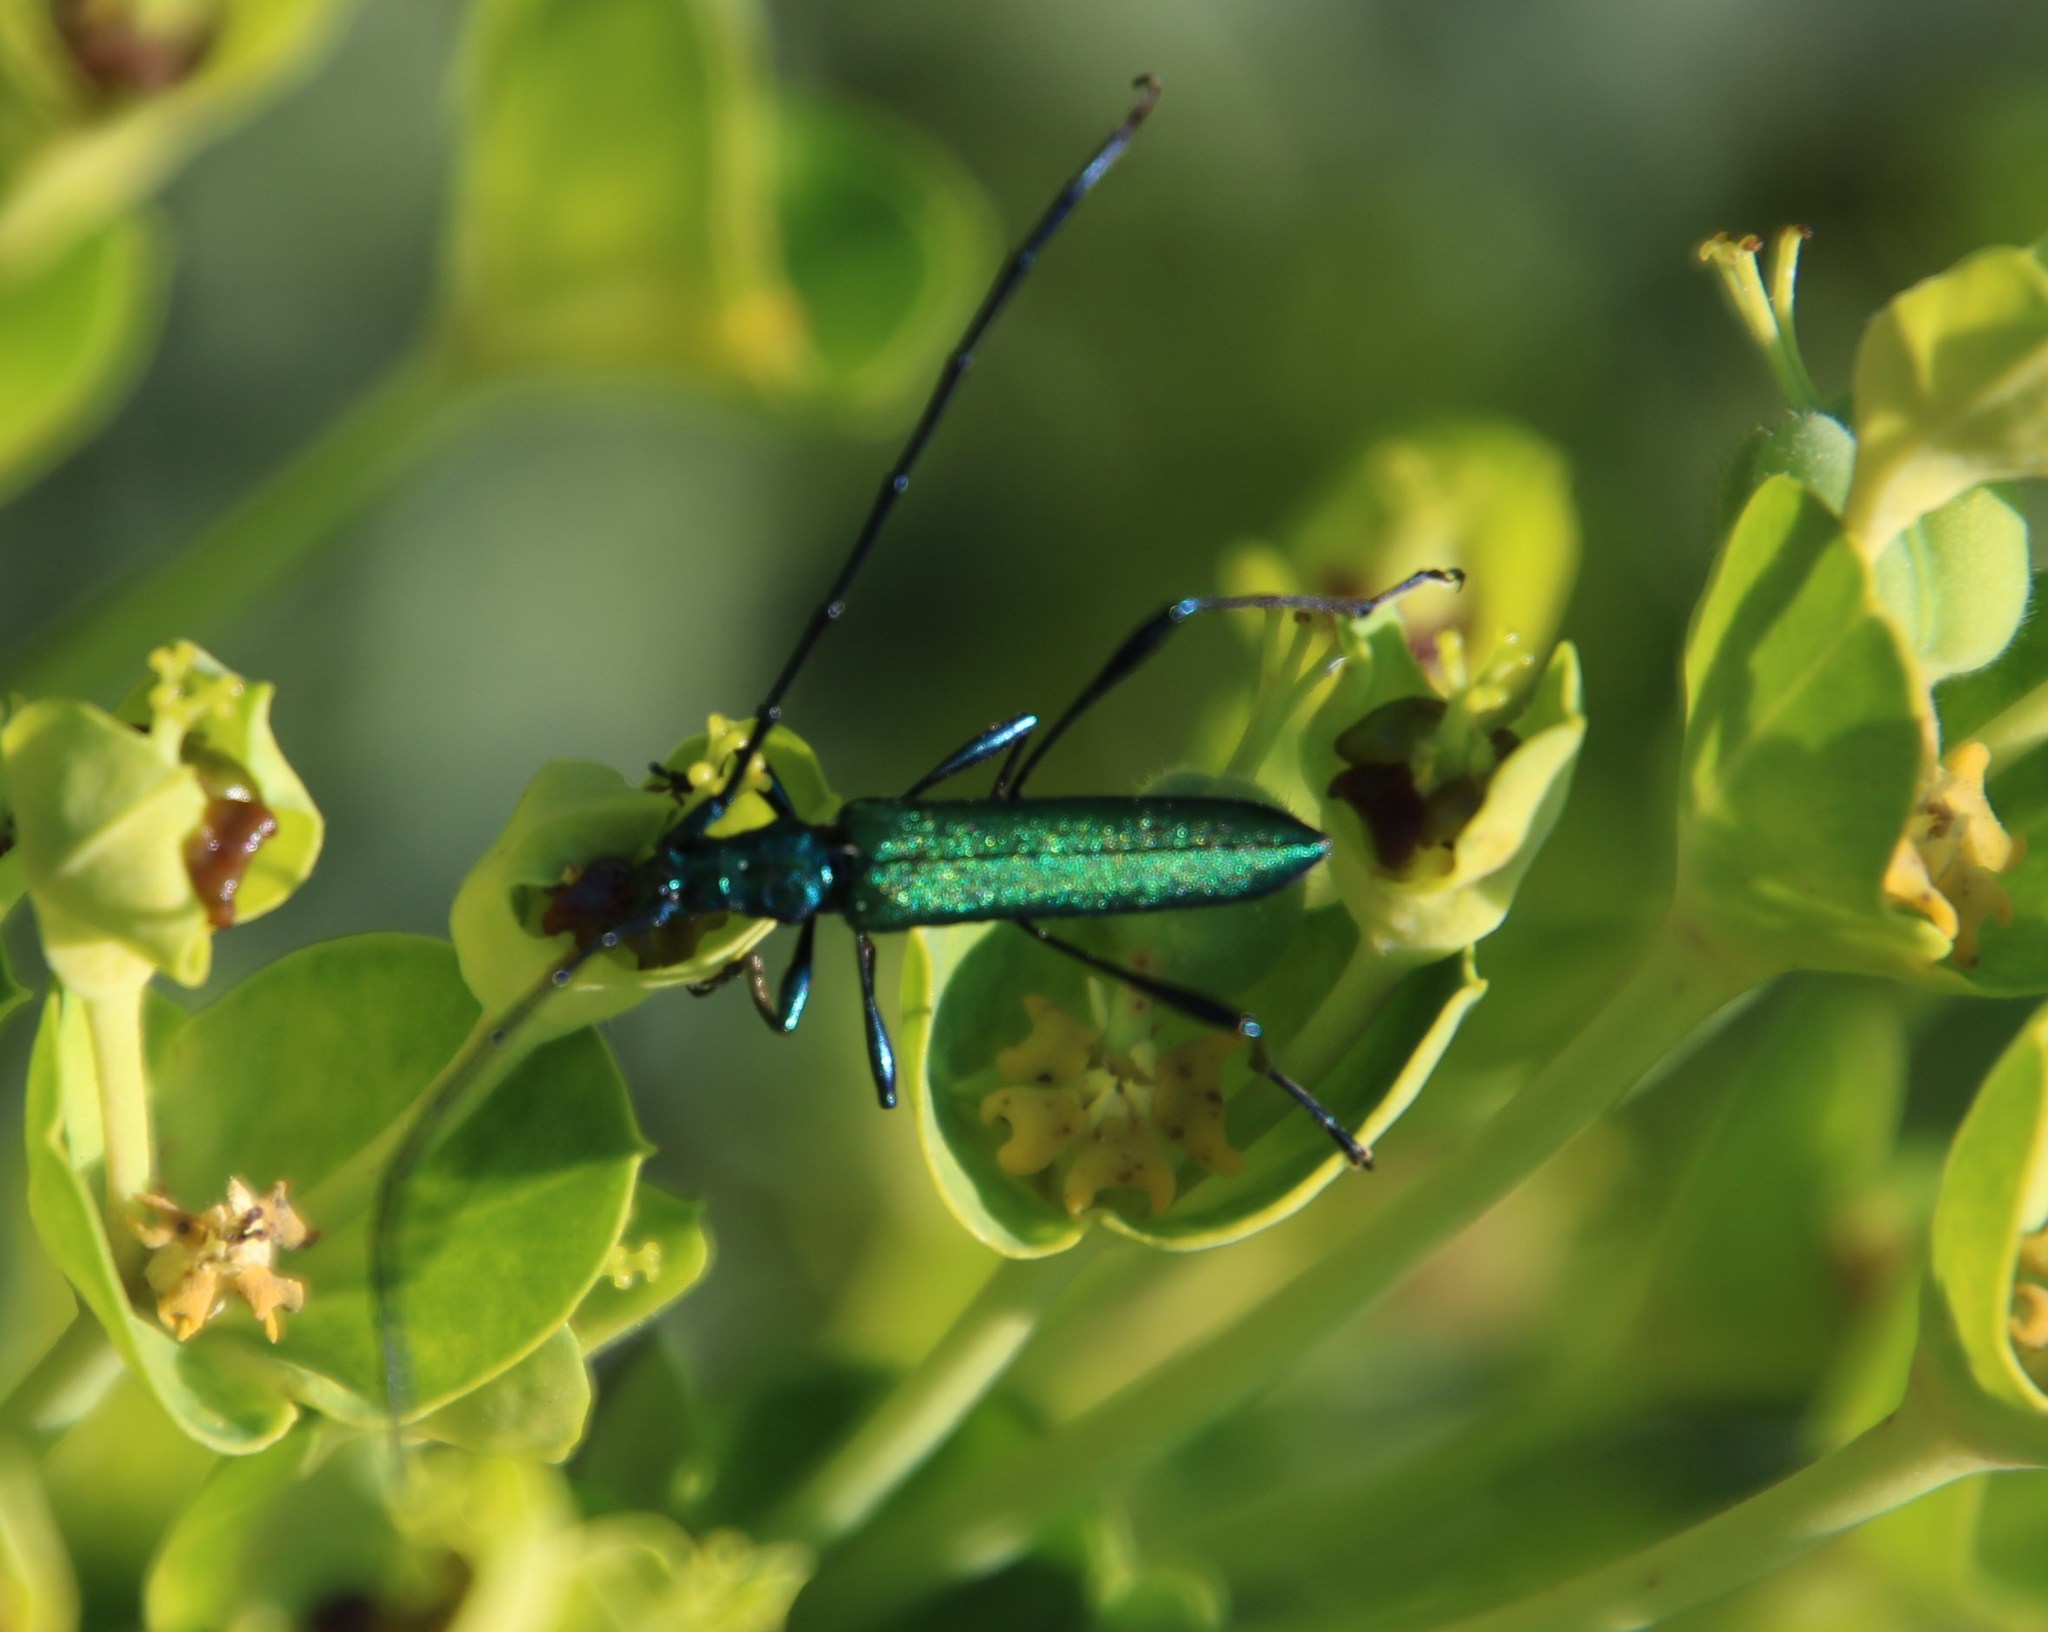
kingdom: Animalia
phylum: Arthropoda
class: Insecta
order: Coleoptera
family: Cerambycidae
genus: Promeces
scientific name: Promeces longipes
